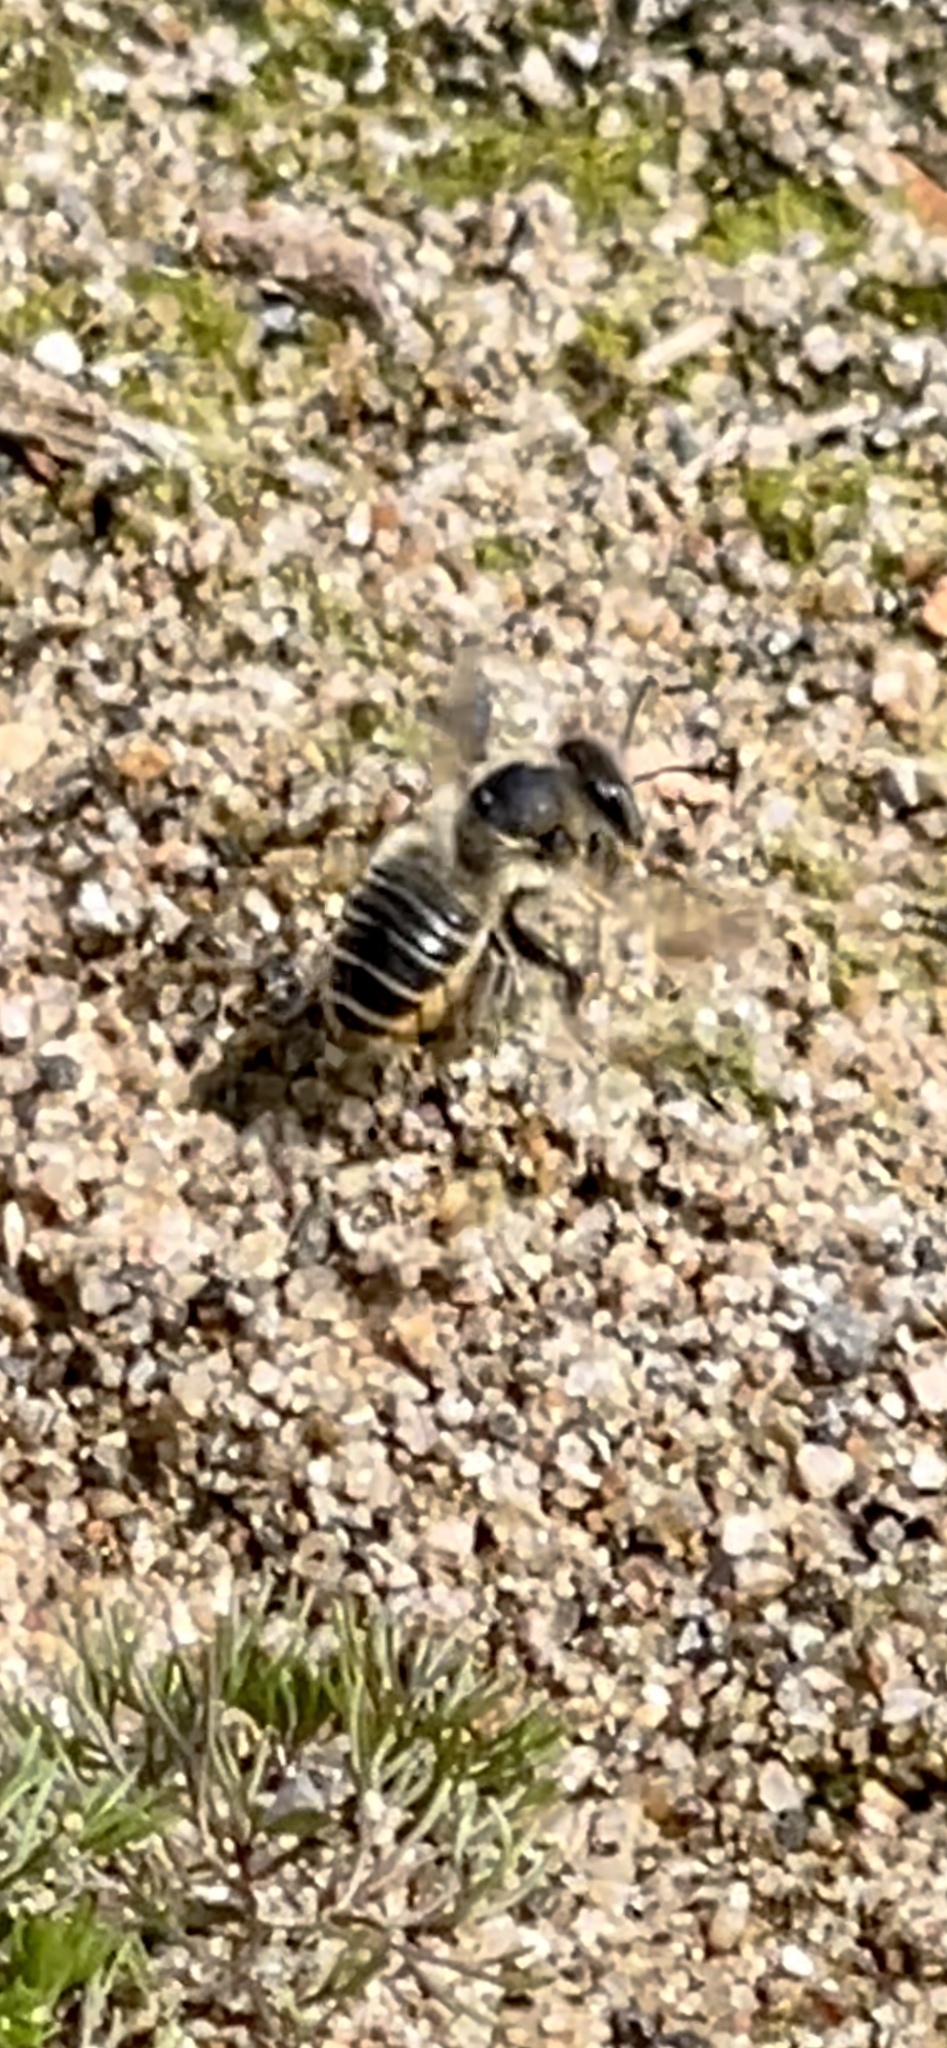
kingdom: Animalia
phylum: Arthropoda
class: Insecta
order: Hymenoptera
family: Megachilidae
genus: Megachile
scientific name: Megachile latimanus
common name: Leafcutting bee
